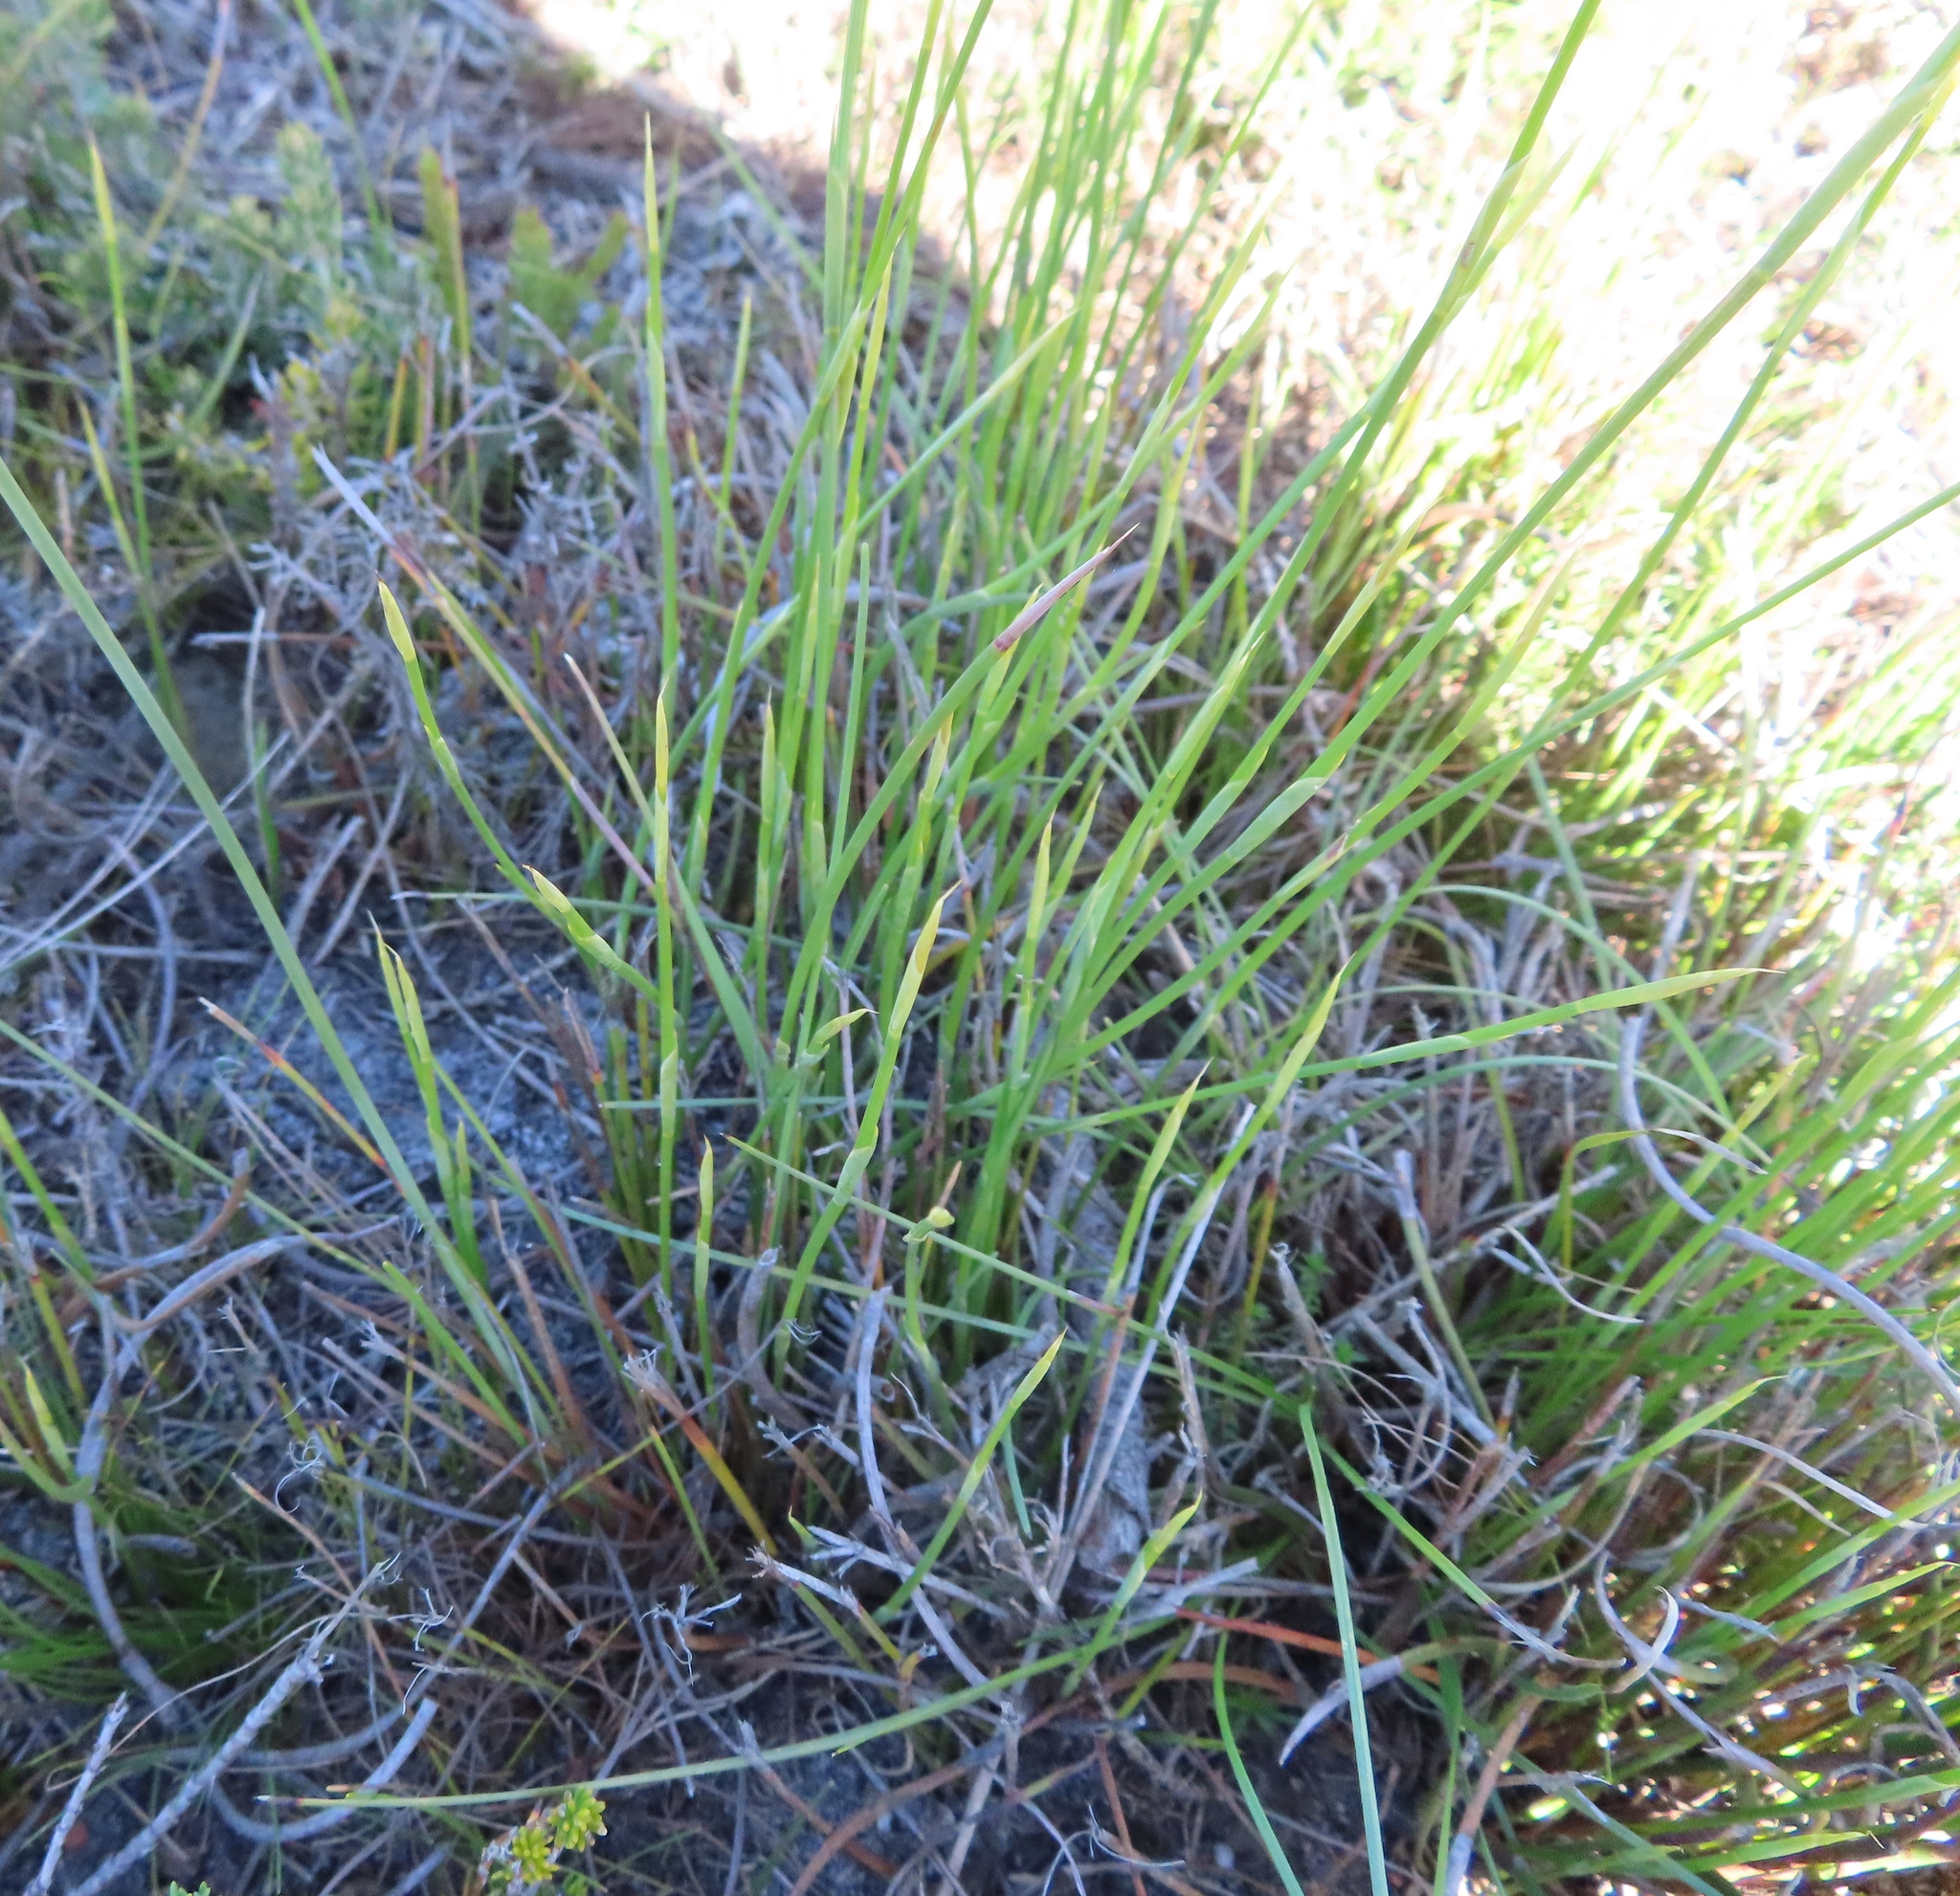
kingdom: Plantae
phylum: Tracheophyta
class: Liliopsida
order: Poales
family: Cyperaceae
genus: Ficinia
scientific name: Ficinia deusta
